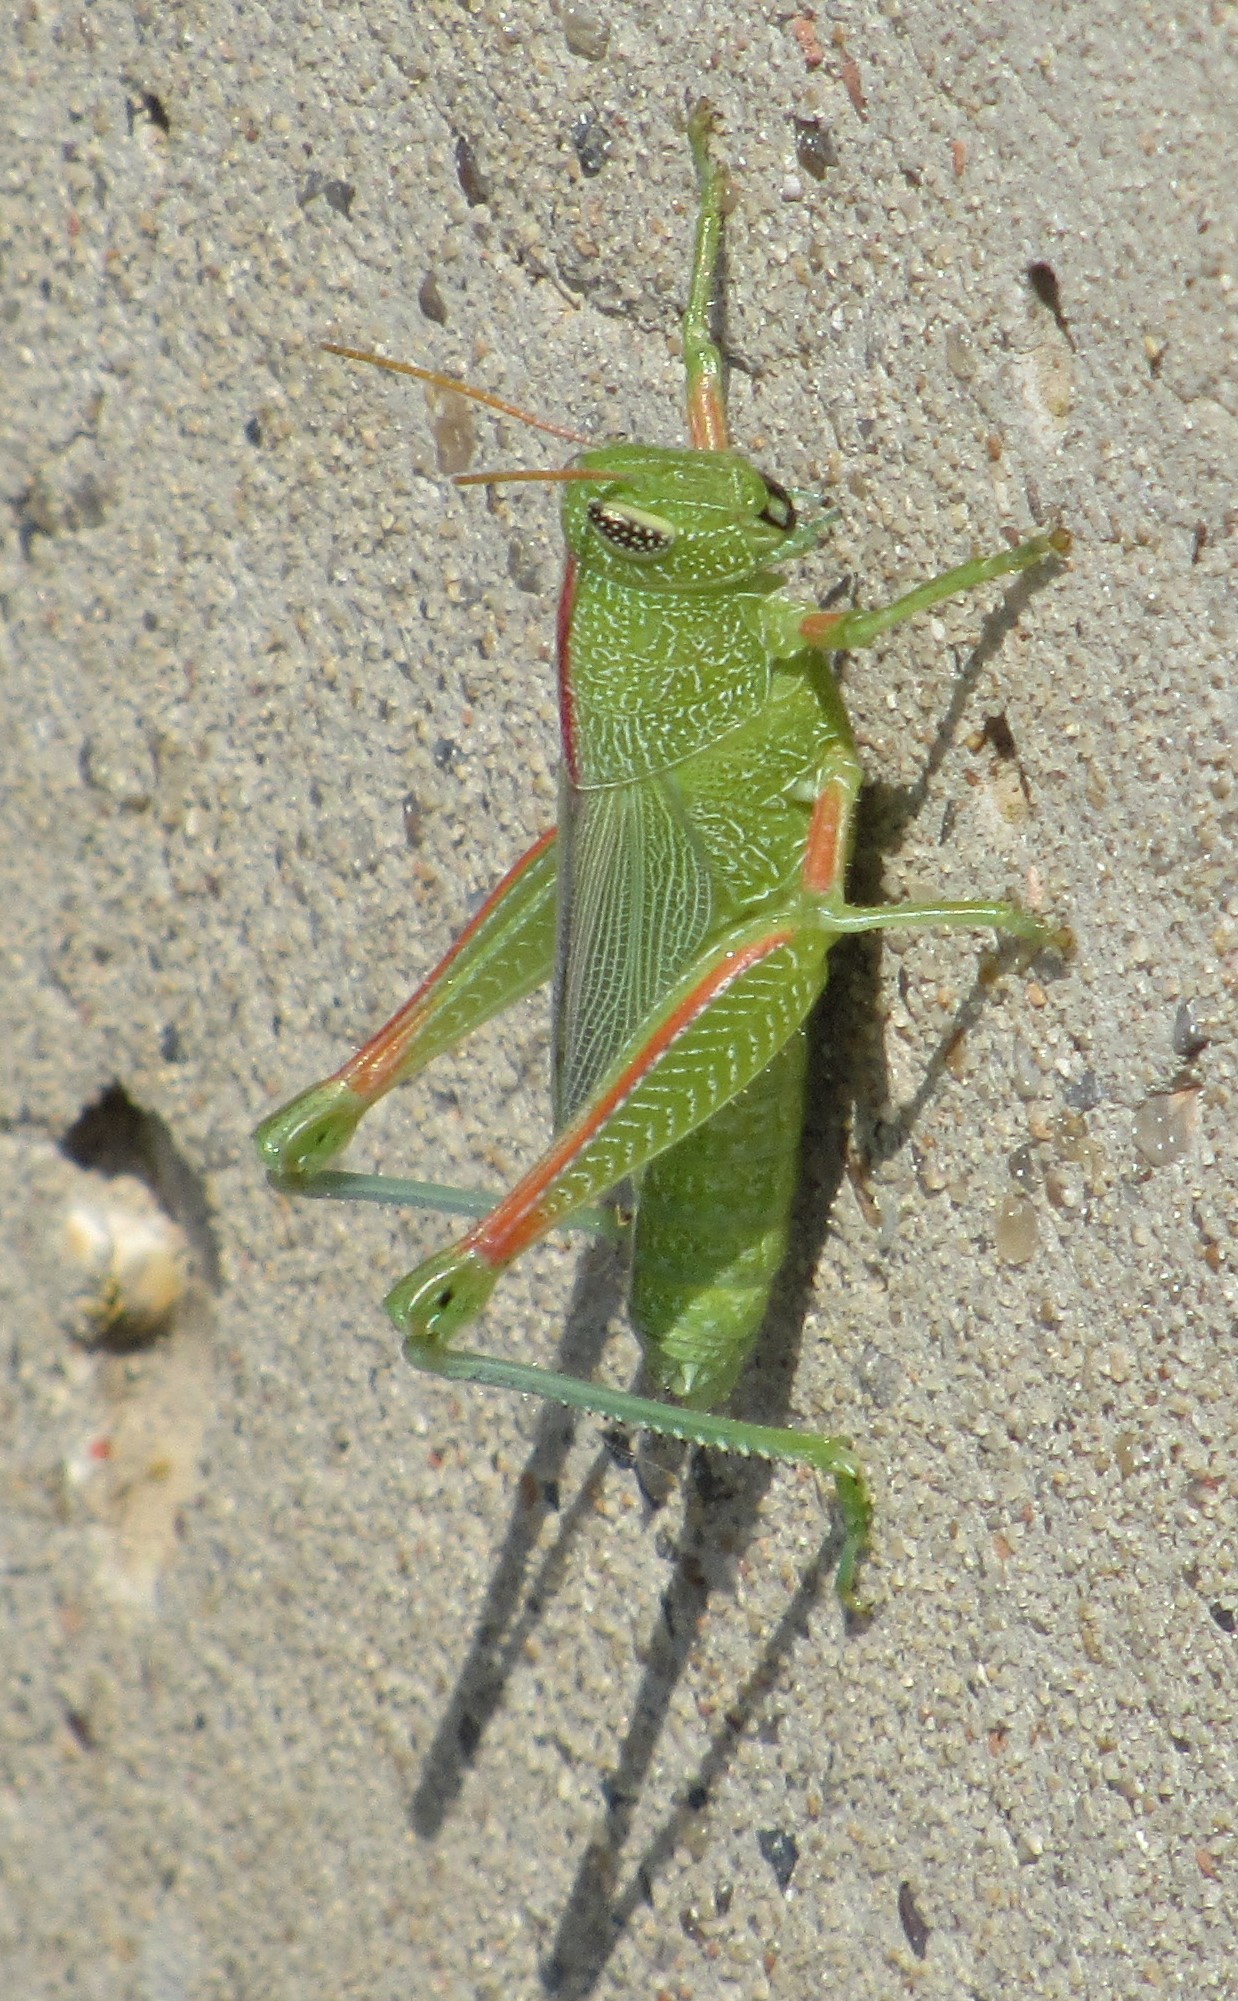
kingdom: Animalia
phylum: Arthropoda
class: Insecta
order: Orthoptera
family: Acrididae
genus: Hesperotettix
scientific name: Hesperotettix speciosus
